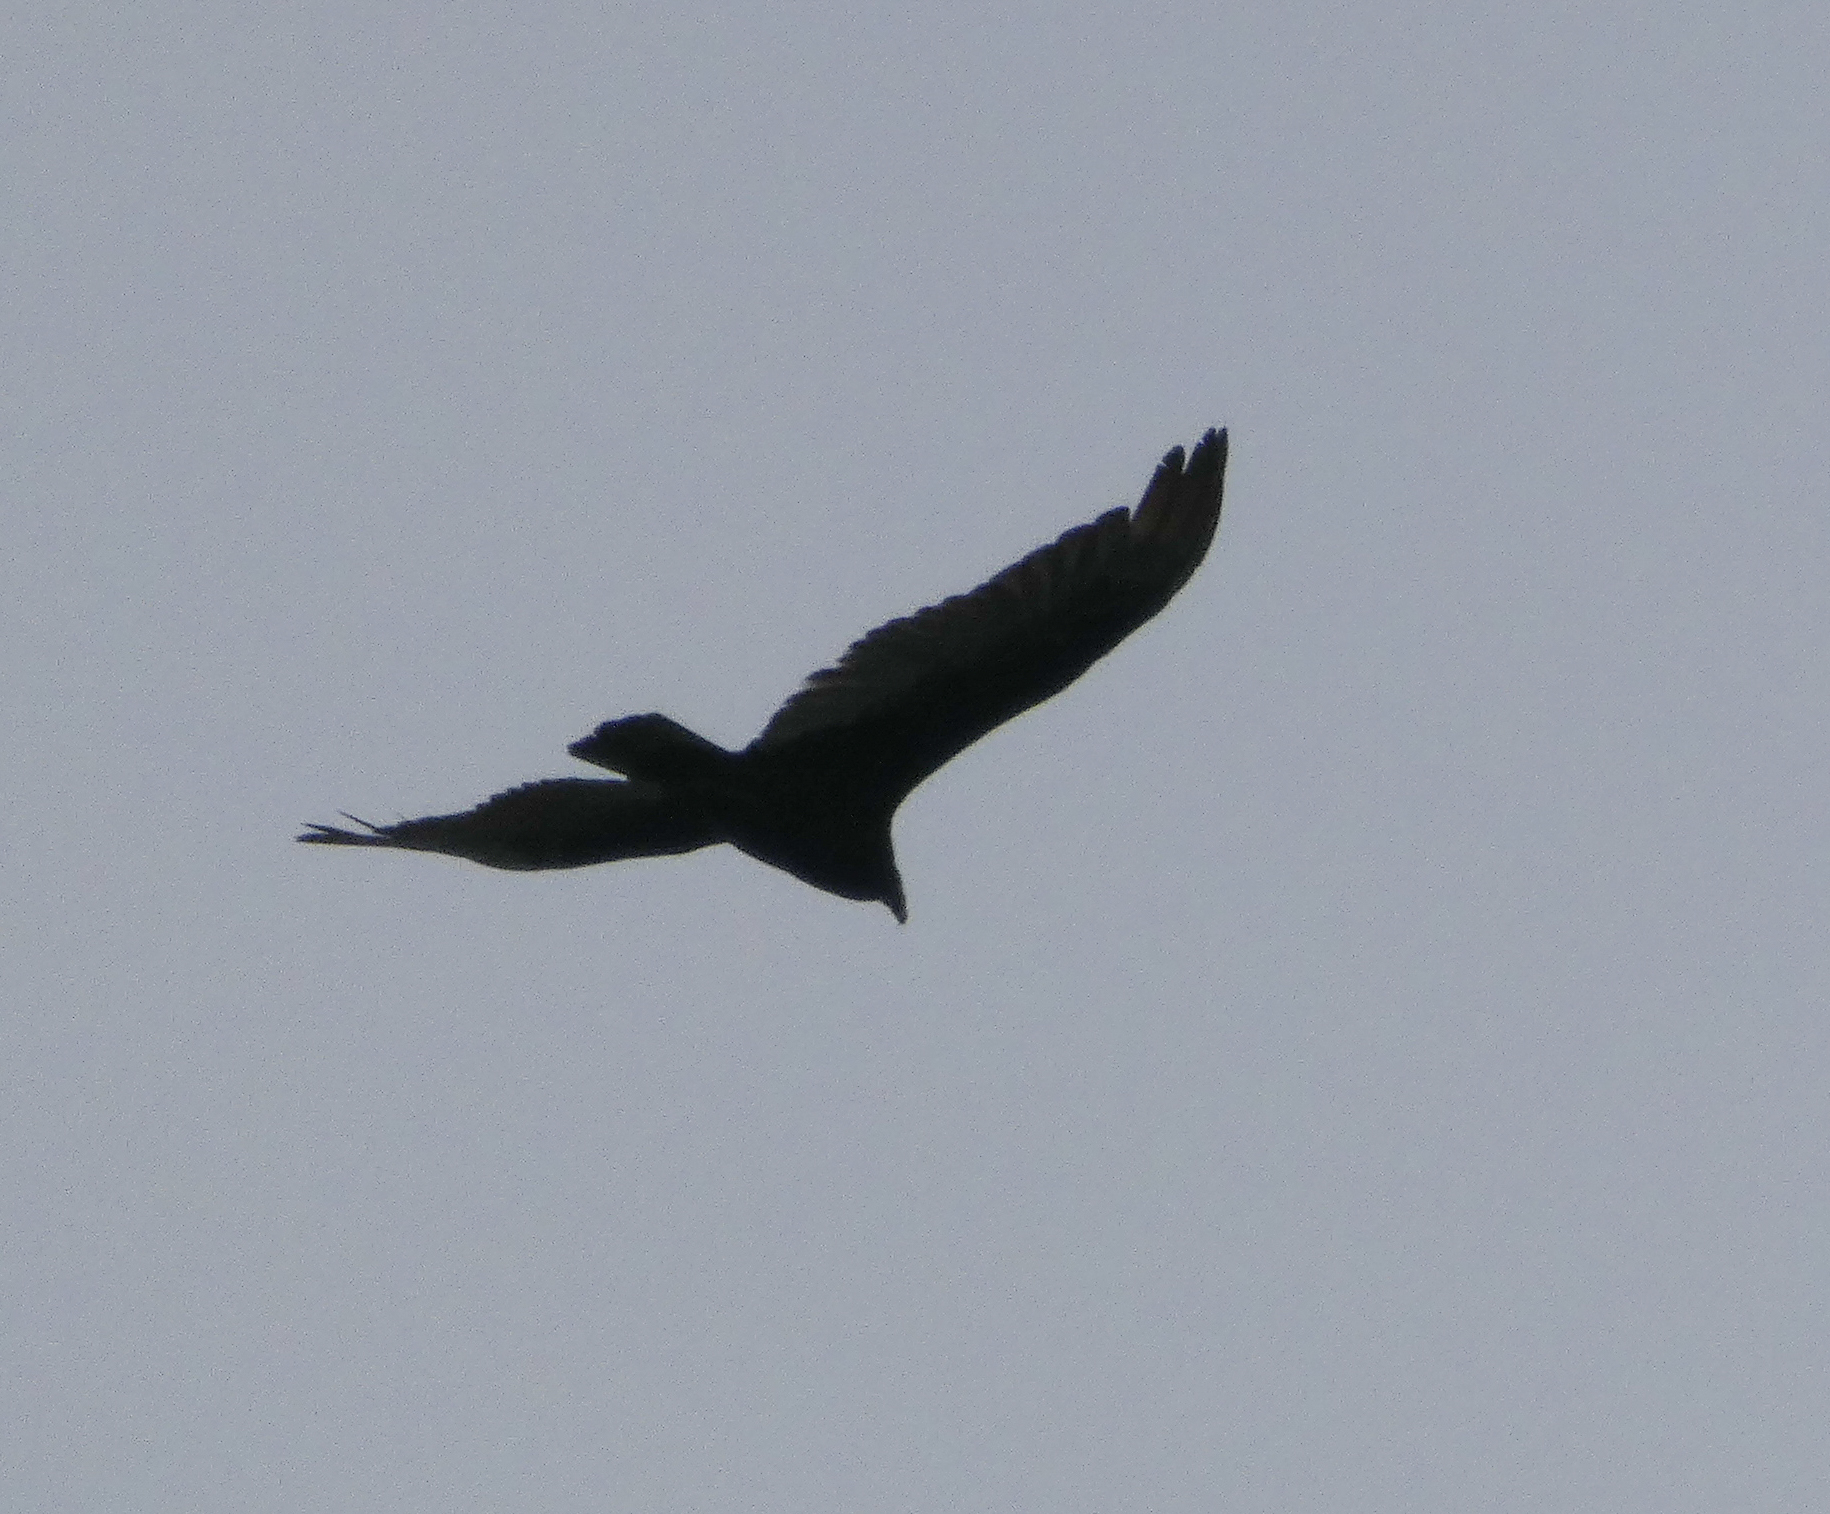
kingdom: Animalia
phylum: Chordata
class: Aves
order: Accipitriformes
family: Cathartidae
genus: Cathartes
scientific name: Cathartes aura
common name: Turkey vulture
